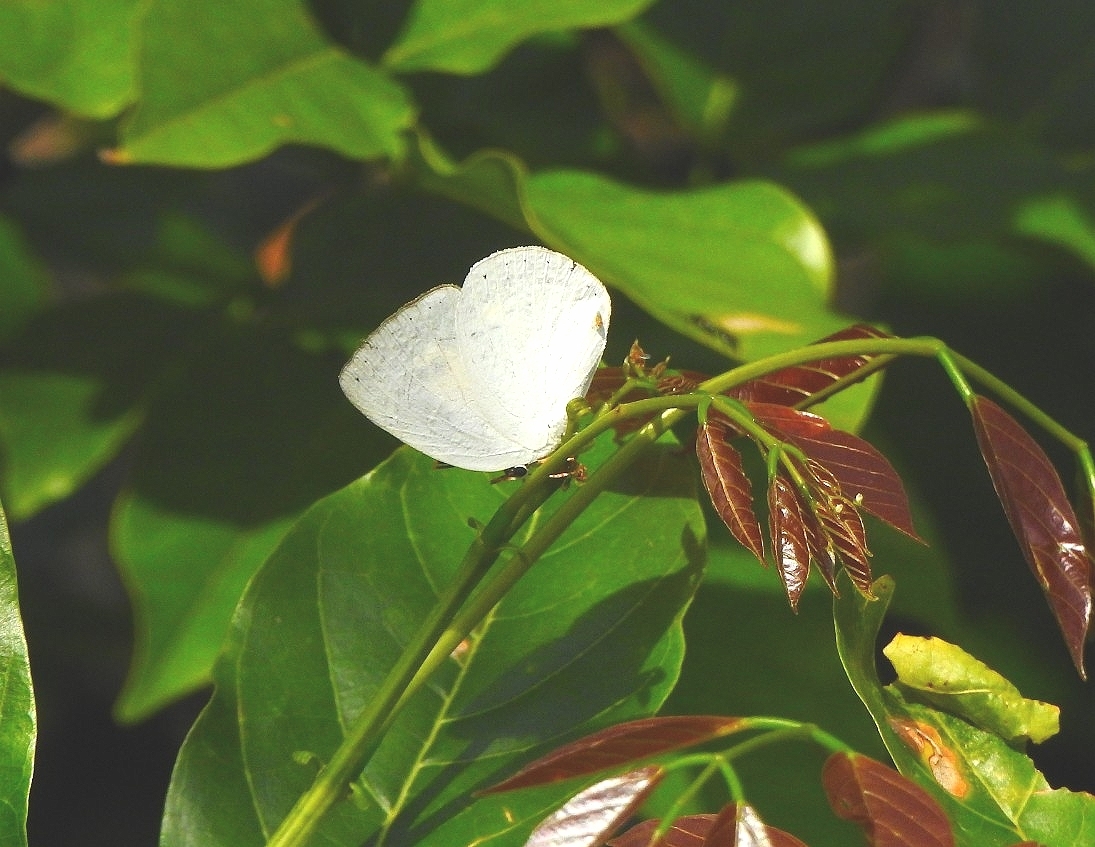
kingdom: Animalia
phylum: Arthropoda
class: Insecta
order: Lepidoptera
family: Lycaenidae
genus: Curetis
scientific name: Curetis thetis
